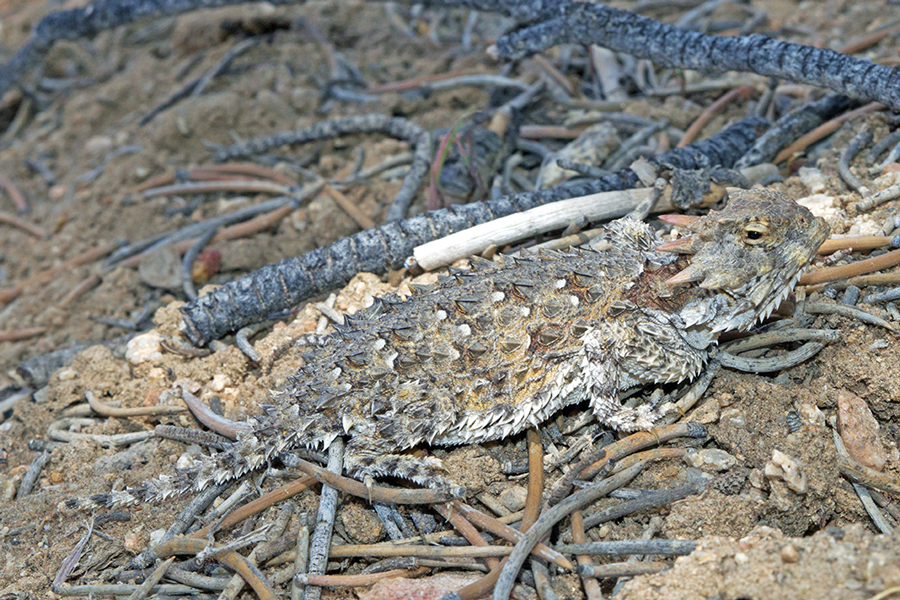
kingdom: Animalia
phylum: Chordata
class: Squamata
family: Phrynosomatidae
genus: Phrynosoma
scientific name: Phrynosoma blainvillii
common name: San diego horned lizard
